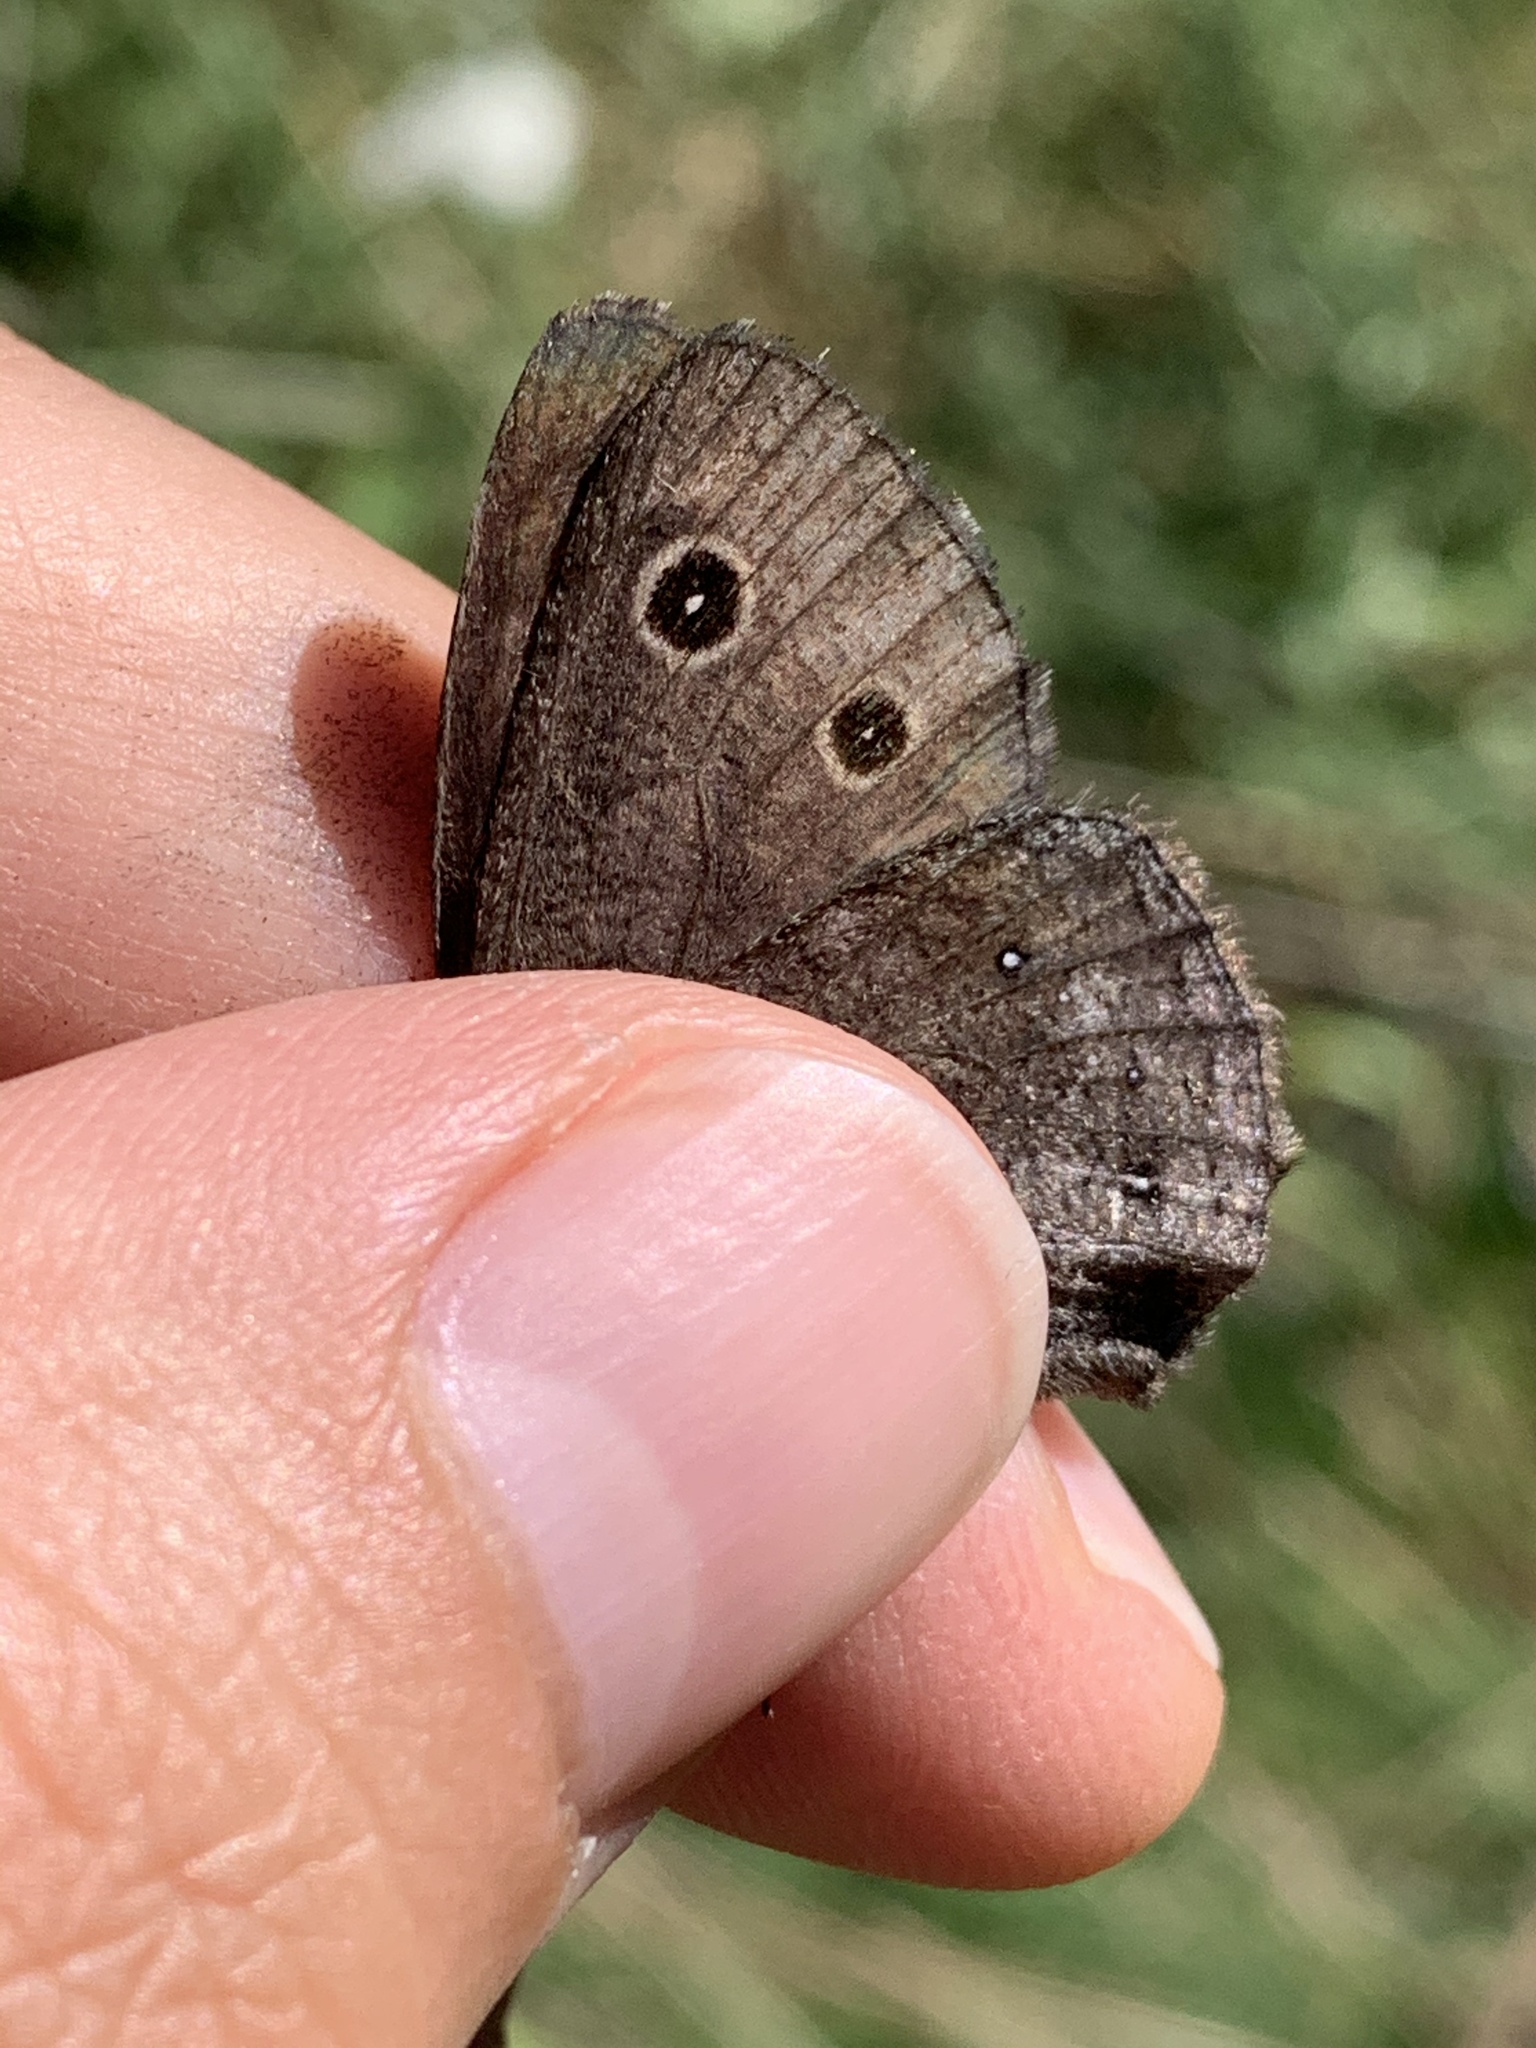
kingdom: Animalia
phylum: Arthropoda
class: Insecta
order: Lepidoptera
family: Nymphalidae
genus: Cercyonis
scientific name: Cercyonis oetus
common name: Small wood-nymph
